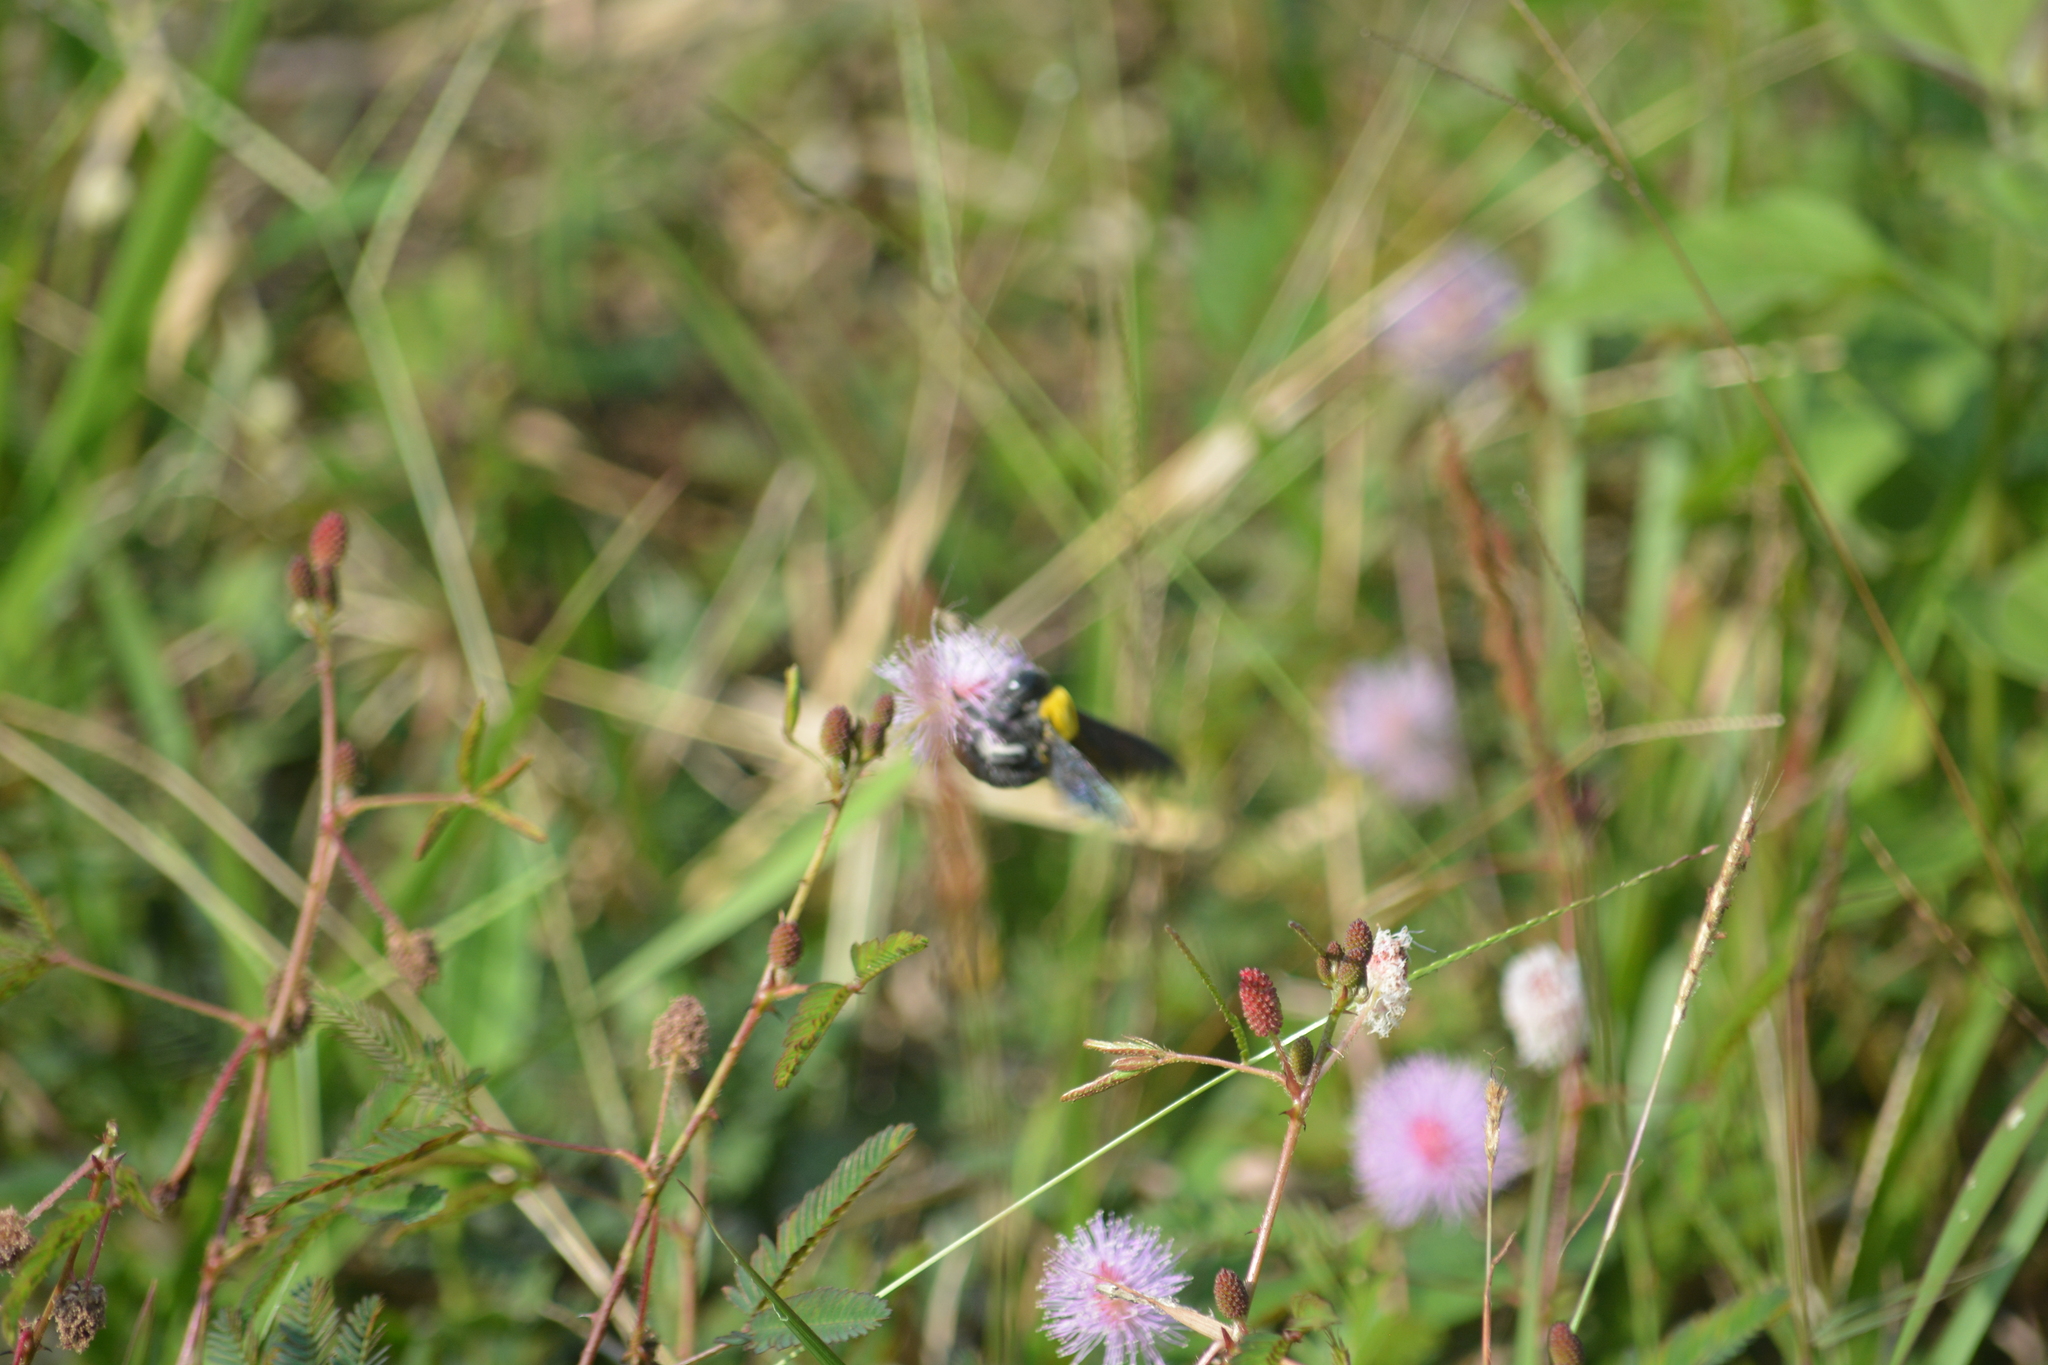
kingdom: Animalia
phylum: Arthropoda
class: Insecta
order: Hymenoptera
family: Apidae
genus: Xylocopa
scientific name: Xylocopa aestuans
